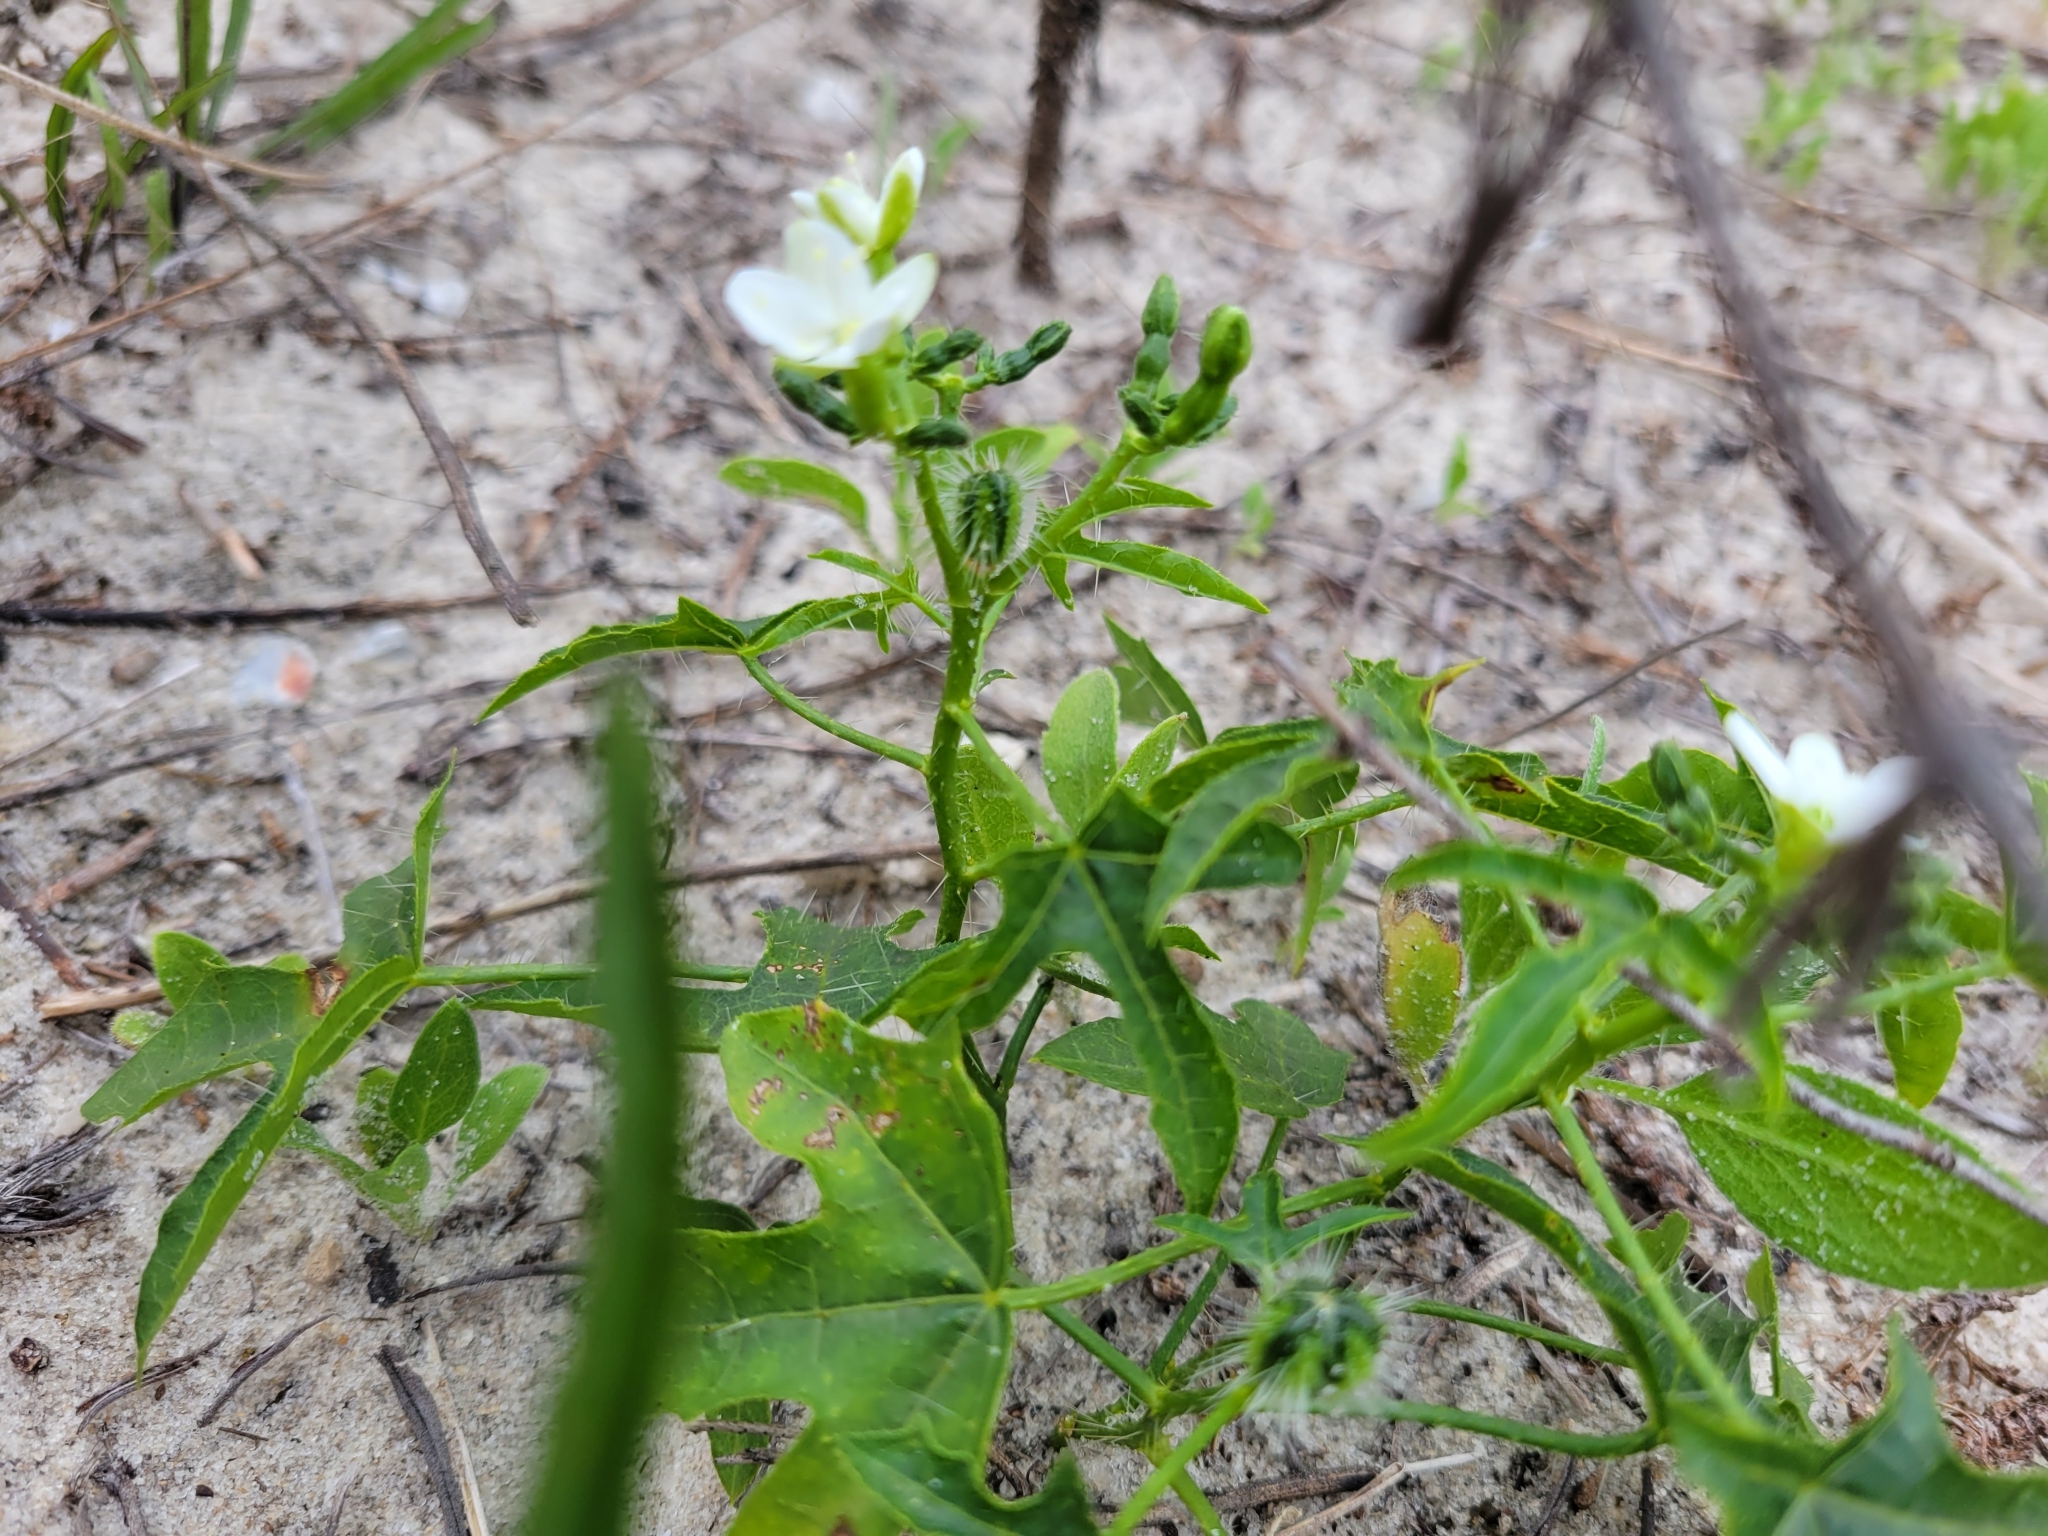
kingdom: Plantae
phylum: Tracheophyta
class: Magnoliopsida
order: Malpighiales
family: Euphorbiaceae
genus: Cnidoscolus
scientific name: Cnidoscolus stimulosus
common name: Bull-nettle
